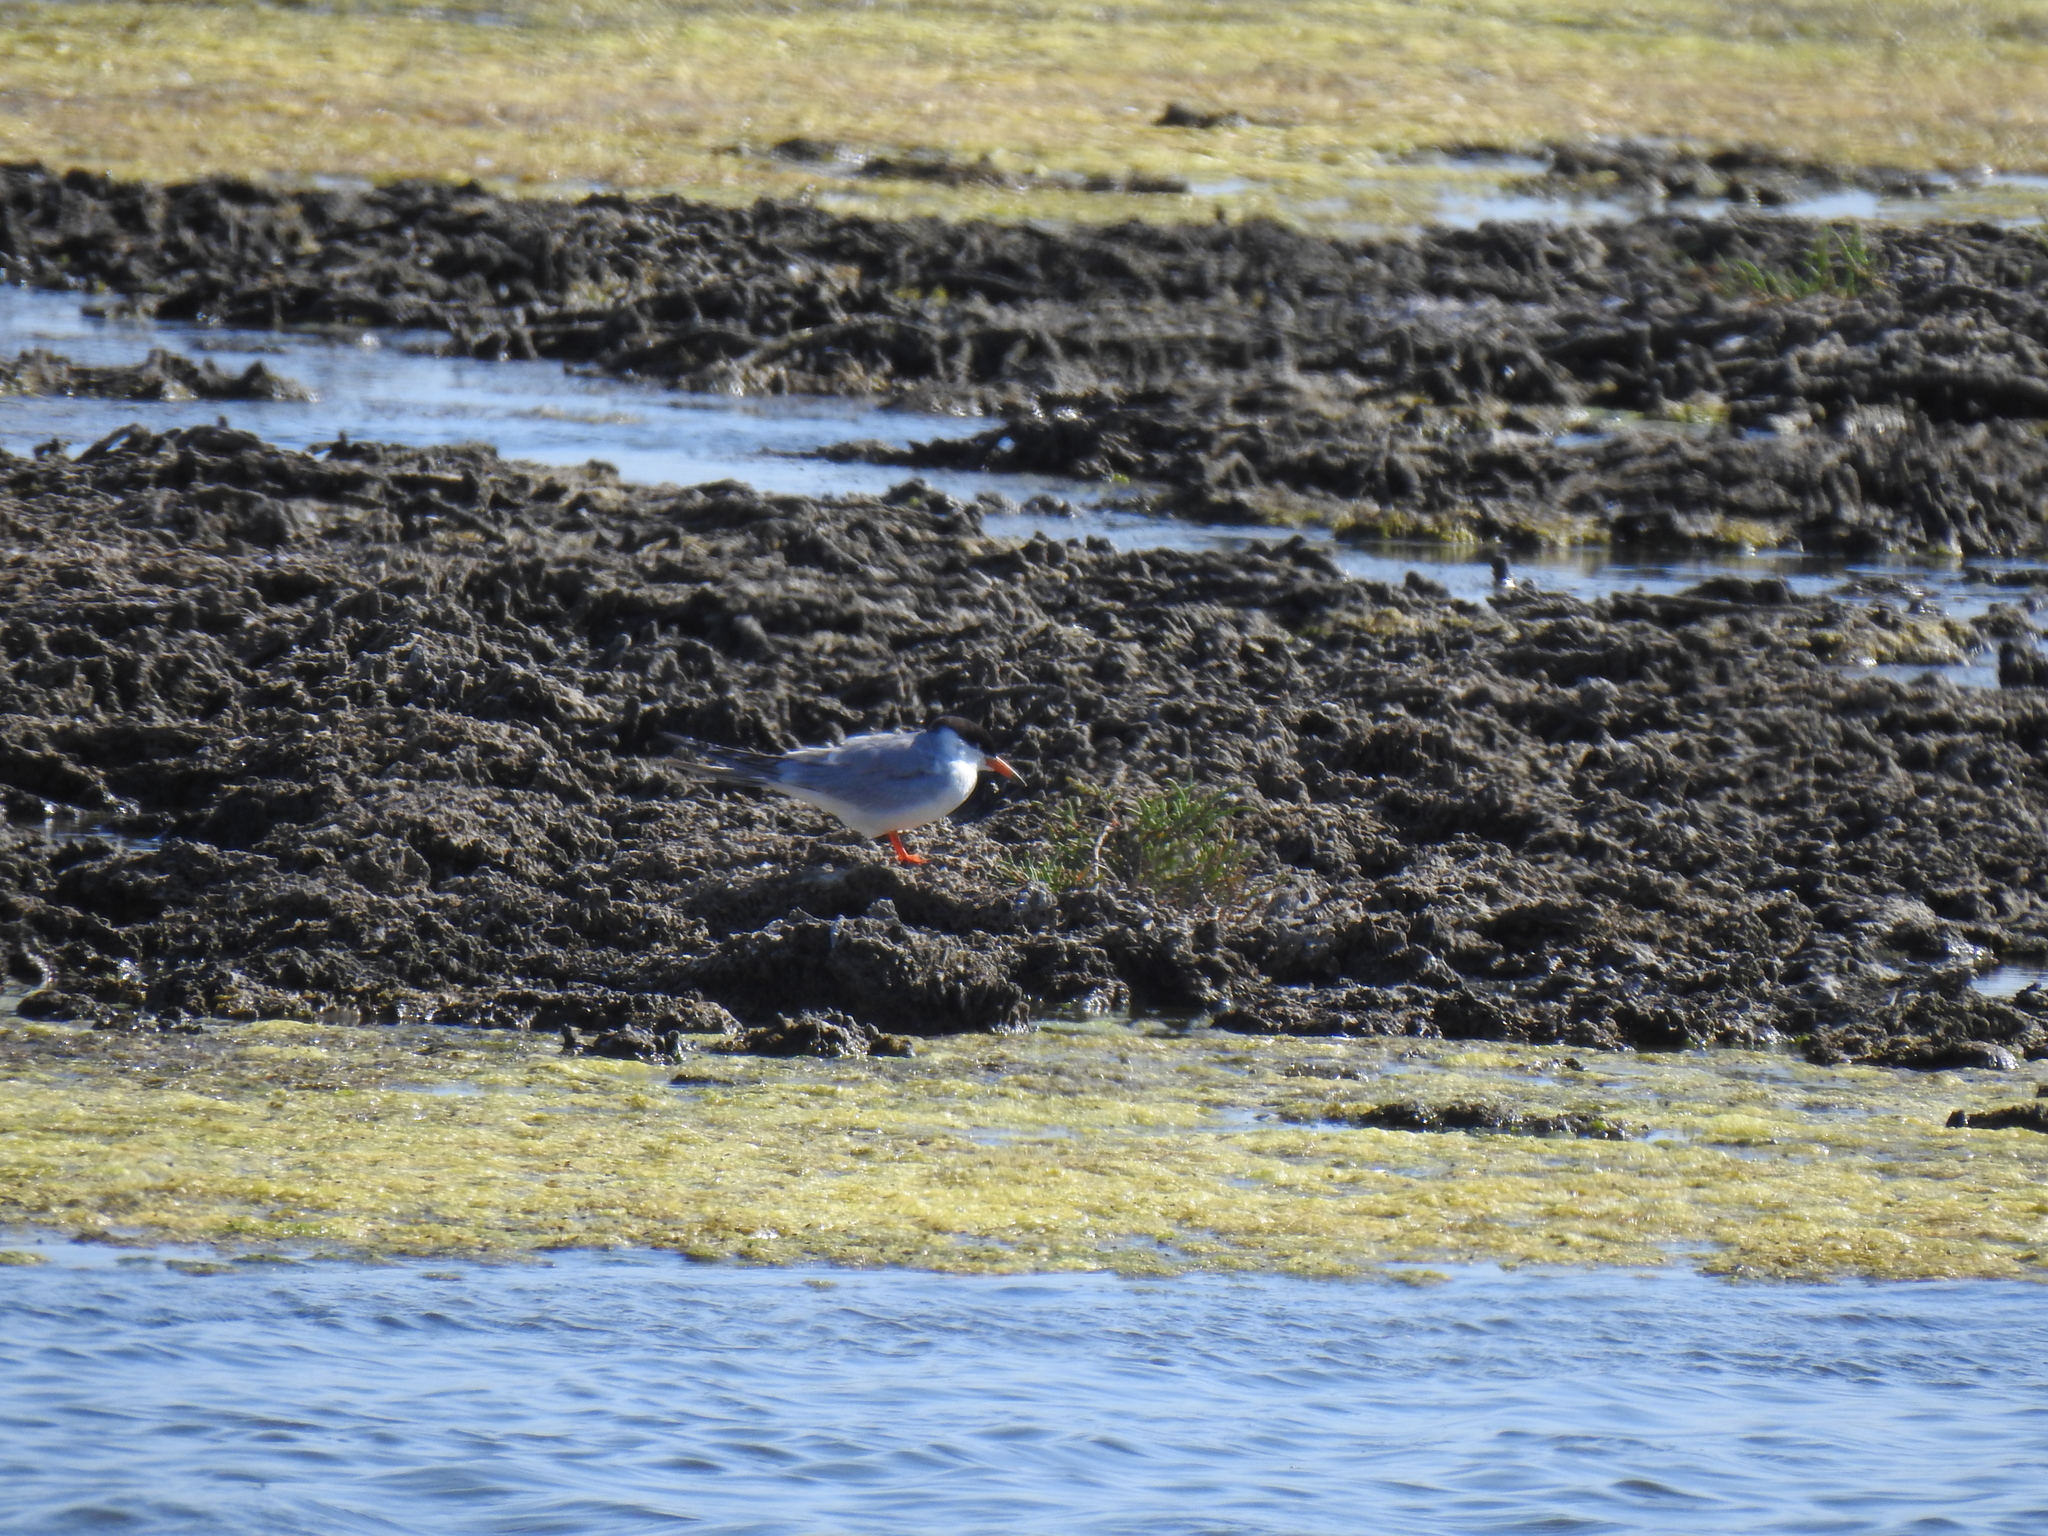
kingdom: Animalia
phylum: Chordata
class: Aves
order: Charadriiformes
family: Laridae
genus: Sterna
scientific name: Sterna forsteri
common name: Forster's tern
